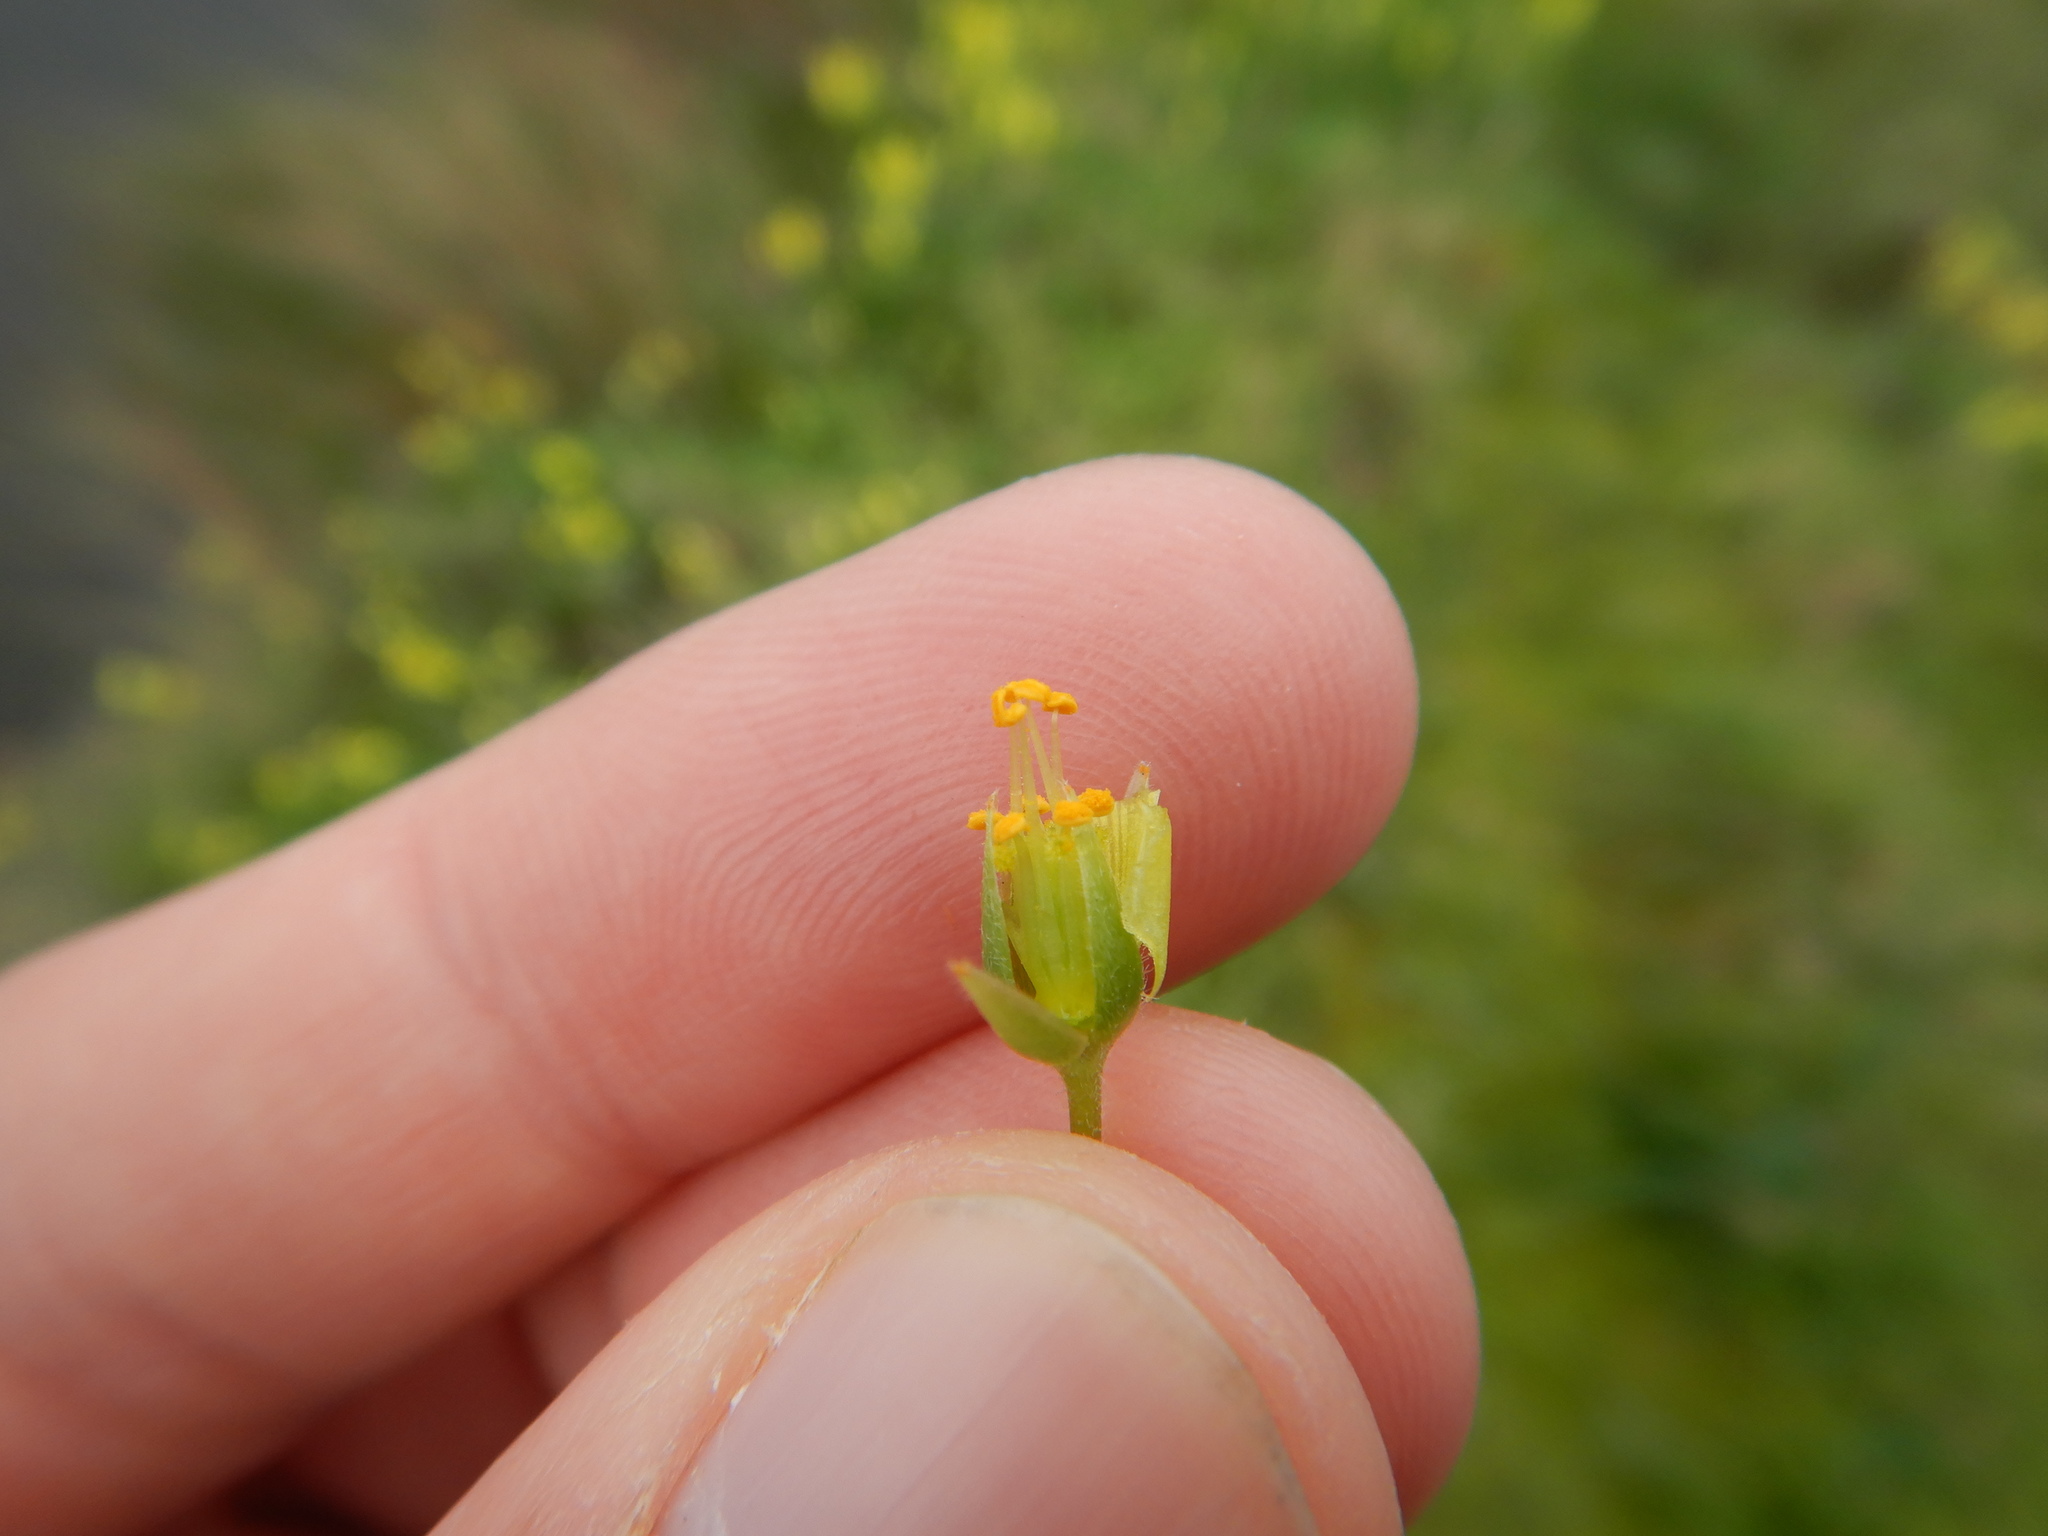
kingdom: Plantae
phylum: Tracheophyta
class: Magnoliopsida
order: Oxalidales
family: Oxalidaceae
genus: Oxalis
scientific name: Oxalis pes-caprae
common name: Bermuda-buttercup
